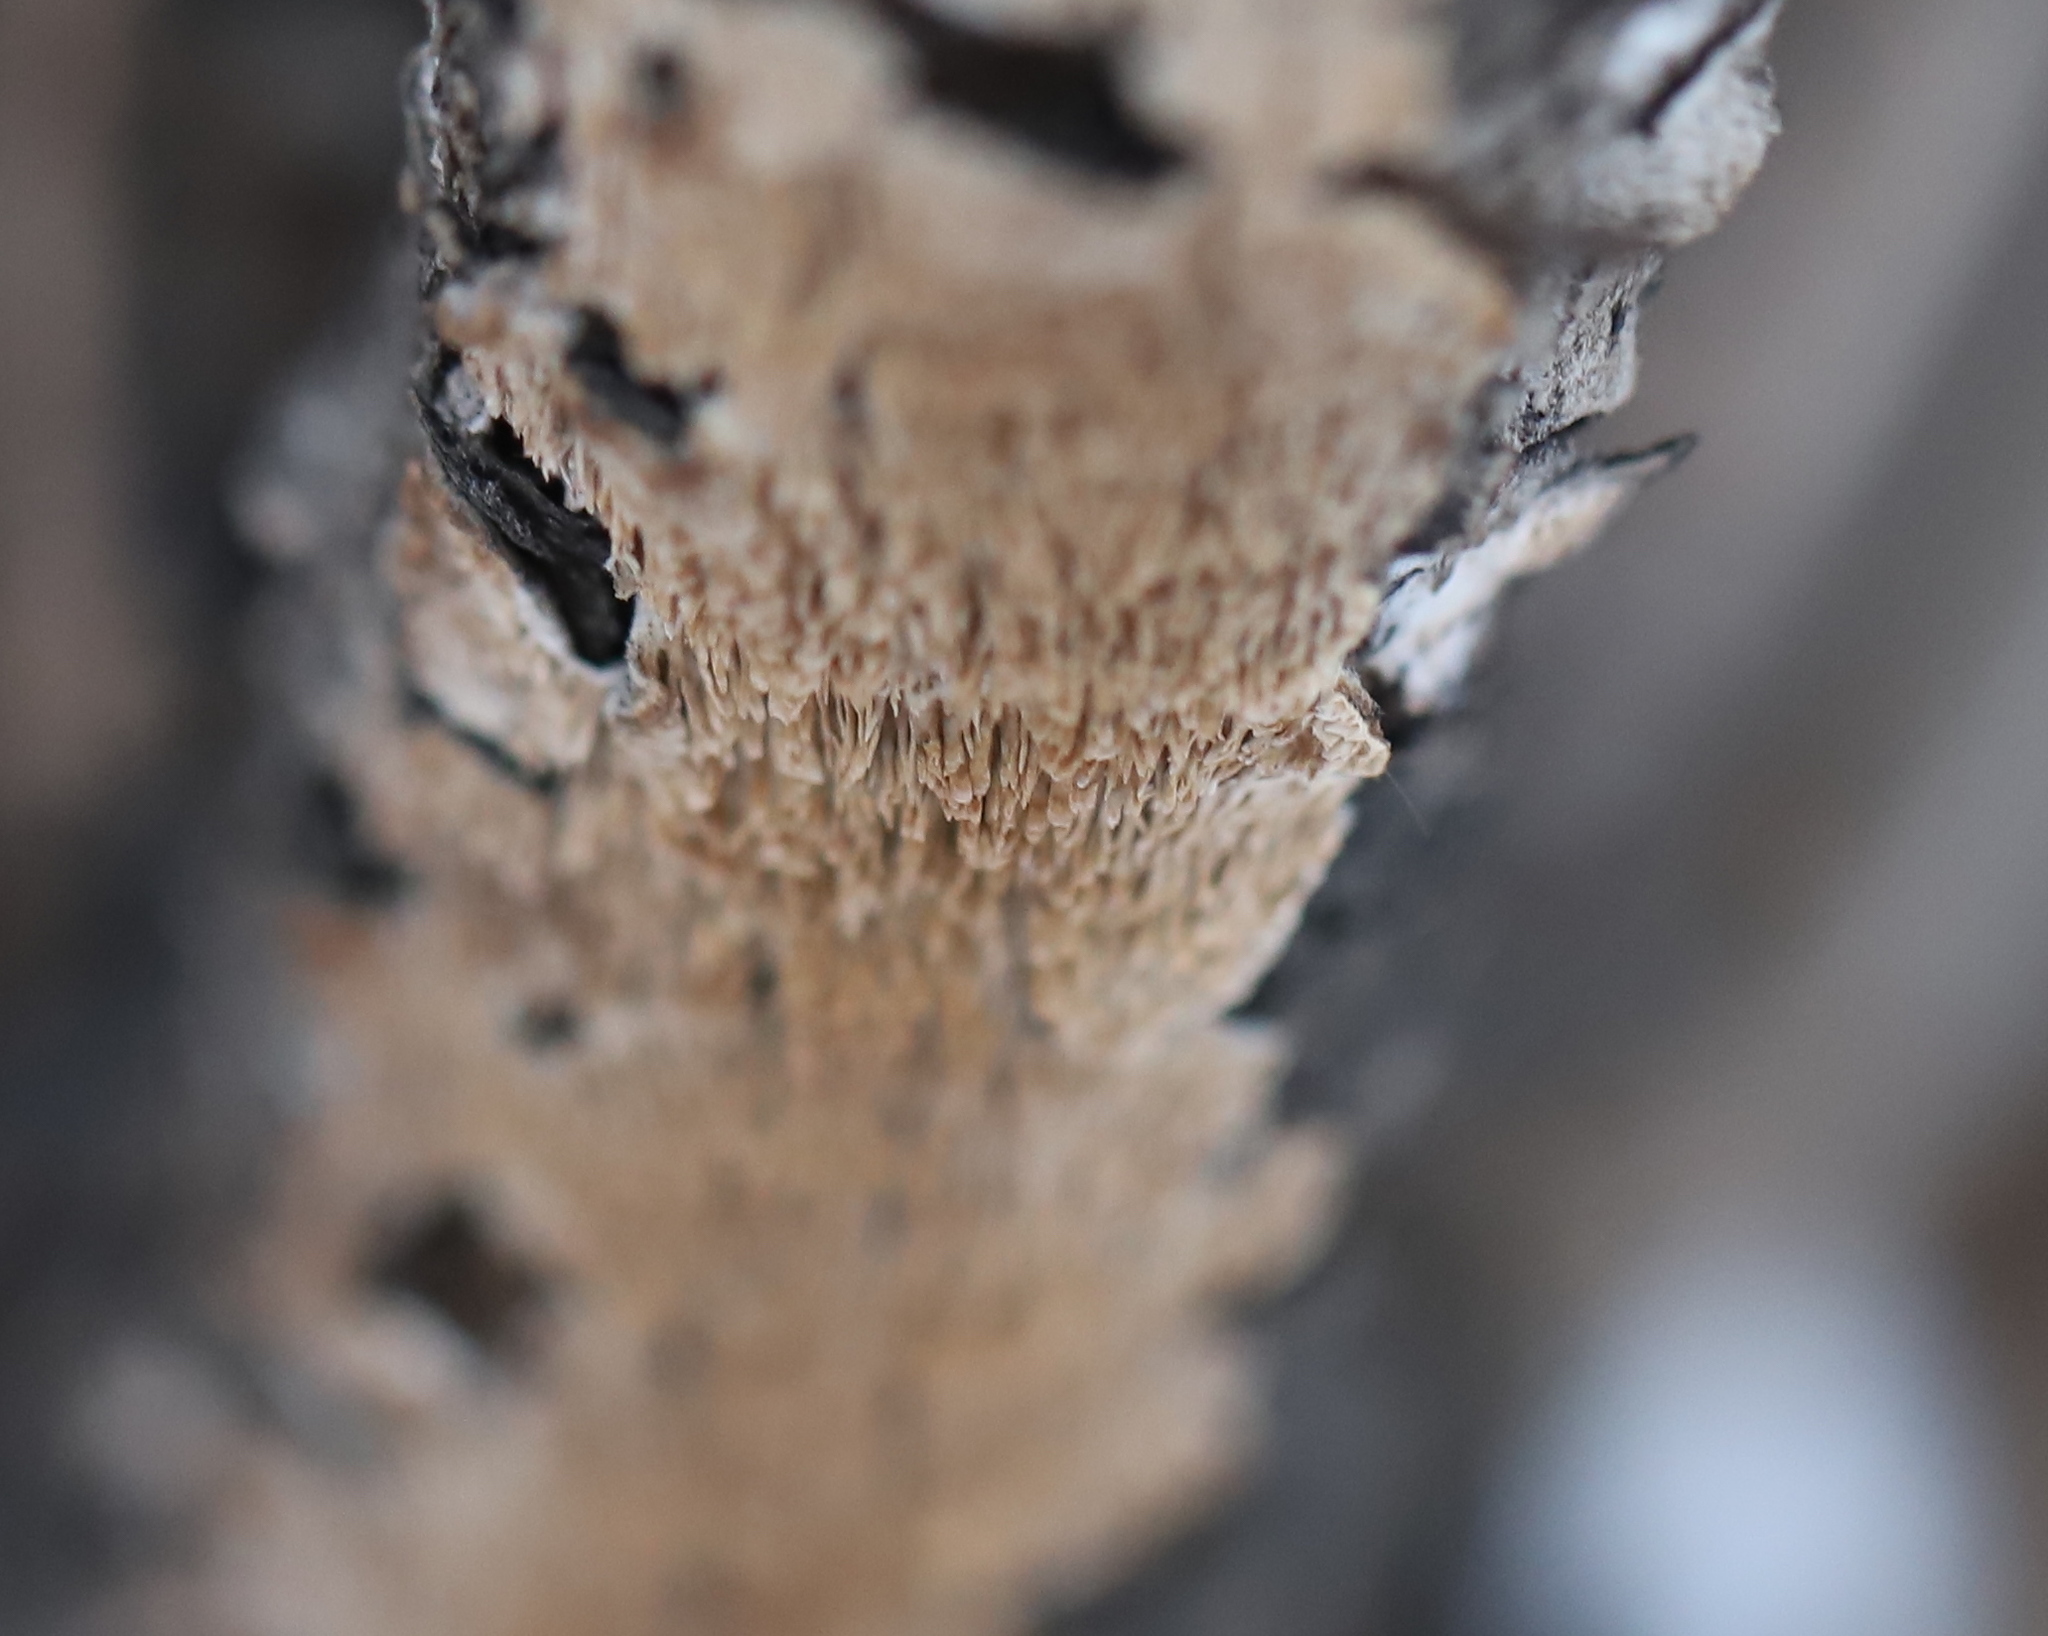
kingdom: Fungi
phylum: Basidiomycota
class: Agaricomycetes
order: Polyporales
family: Irpicaceae
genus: Irpex
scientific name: Irpex lacteus
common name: Milk-white toothed polypore
